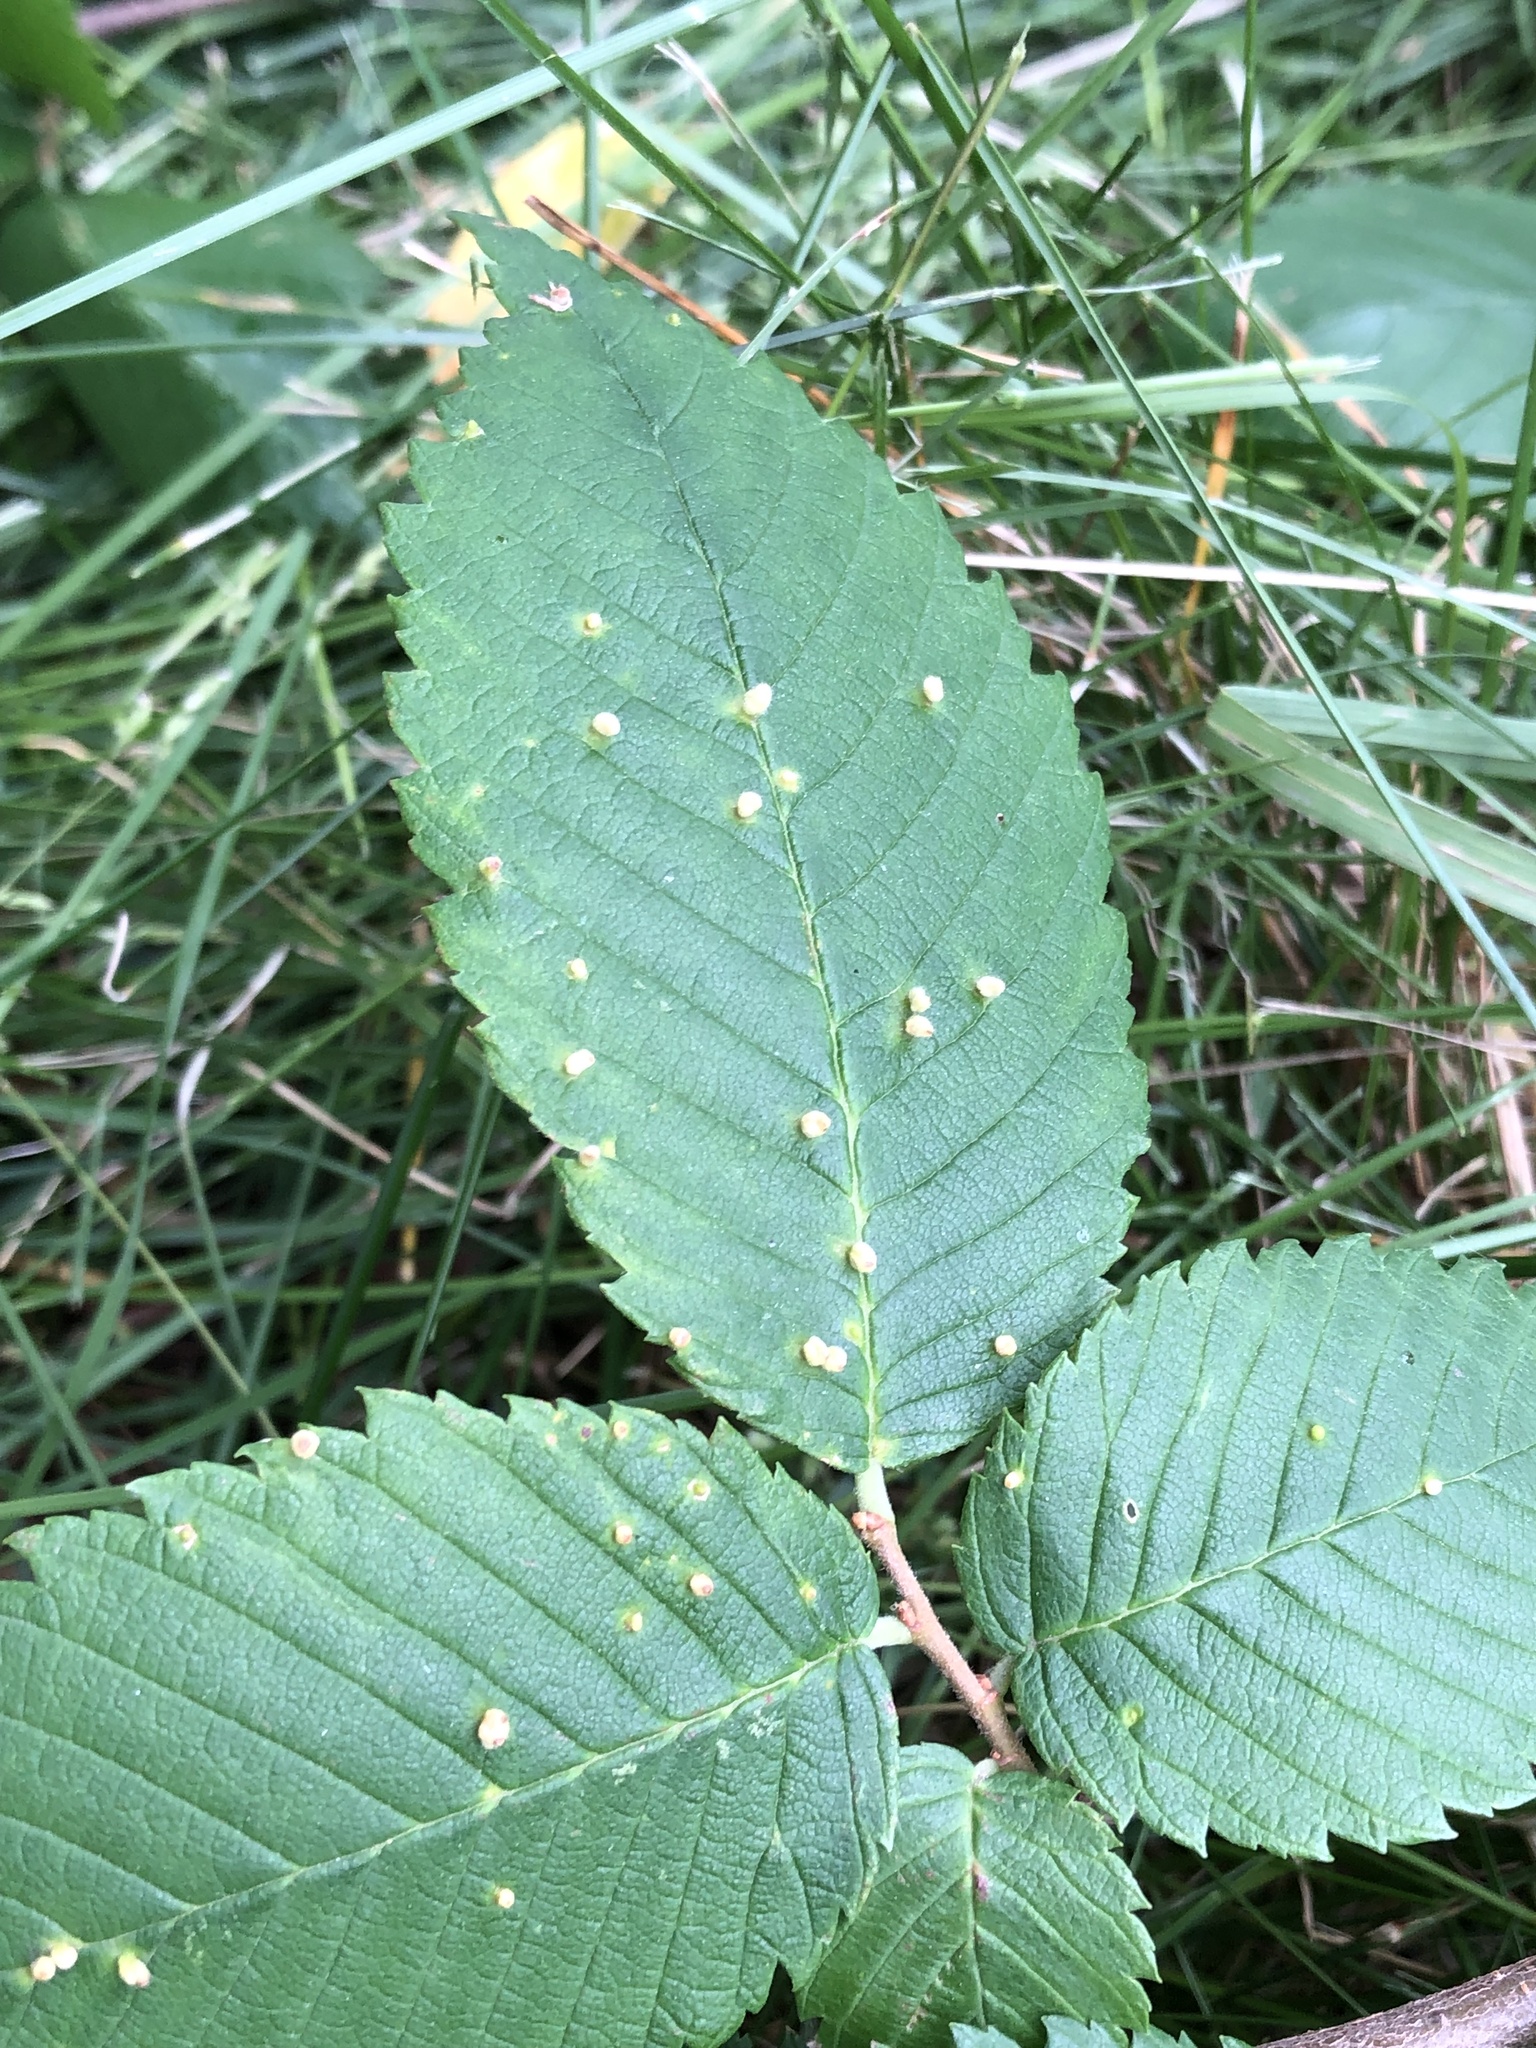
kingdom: Animalia
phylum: Arthropoda
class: Arachnida
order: Trombidiformes
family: Eriophyidae
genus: Aceria
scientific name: Aceria
